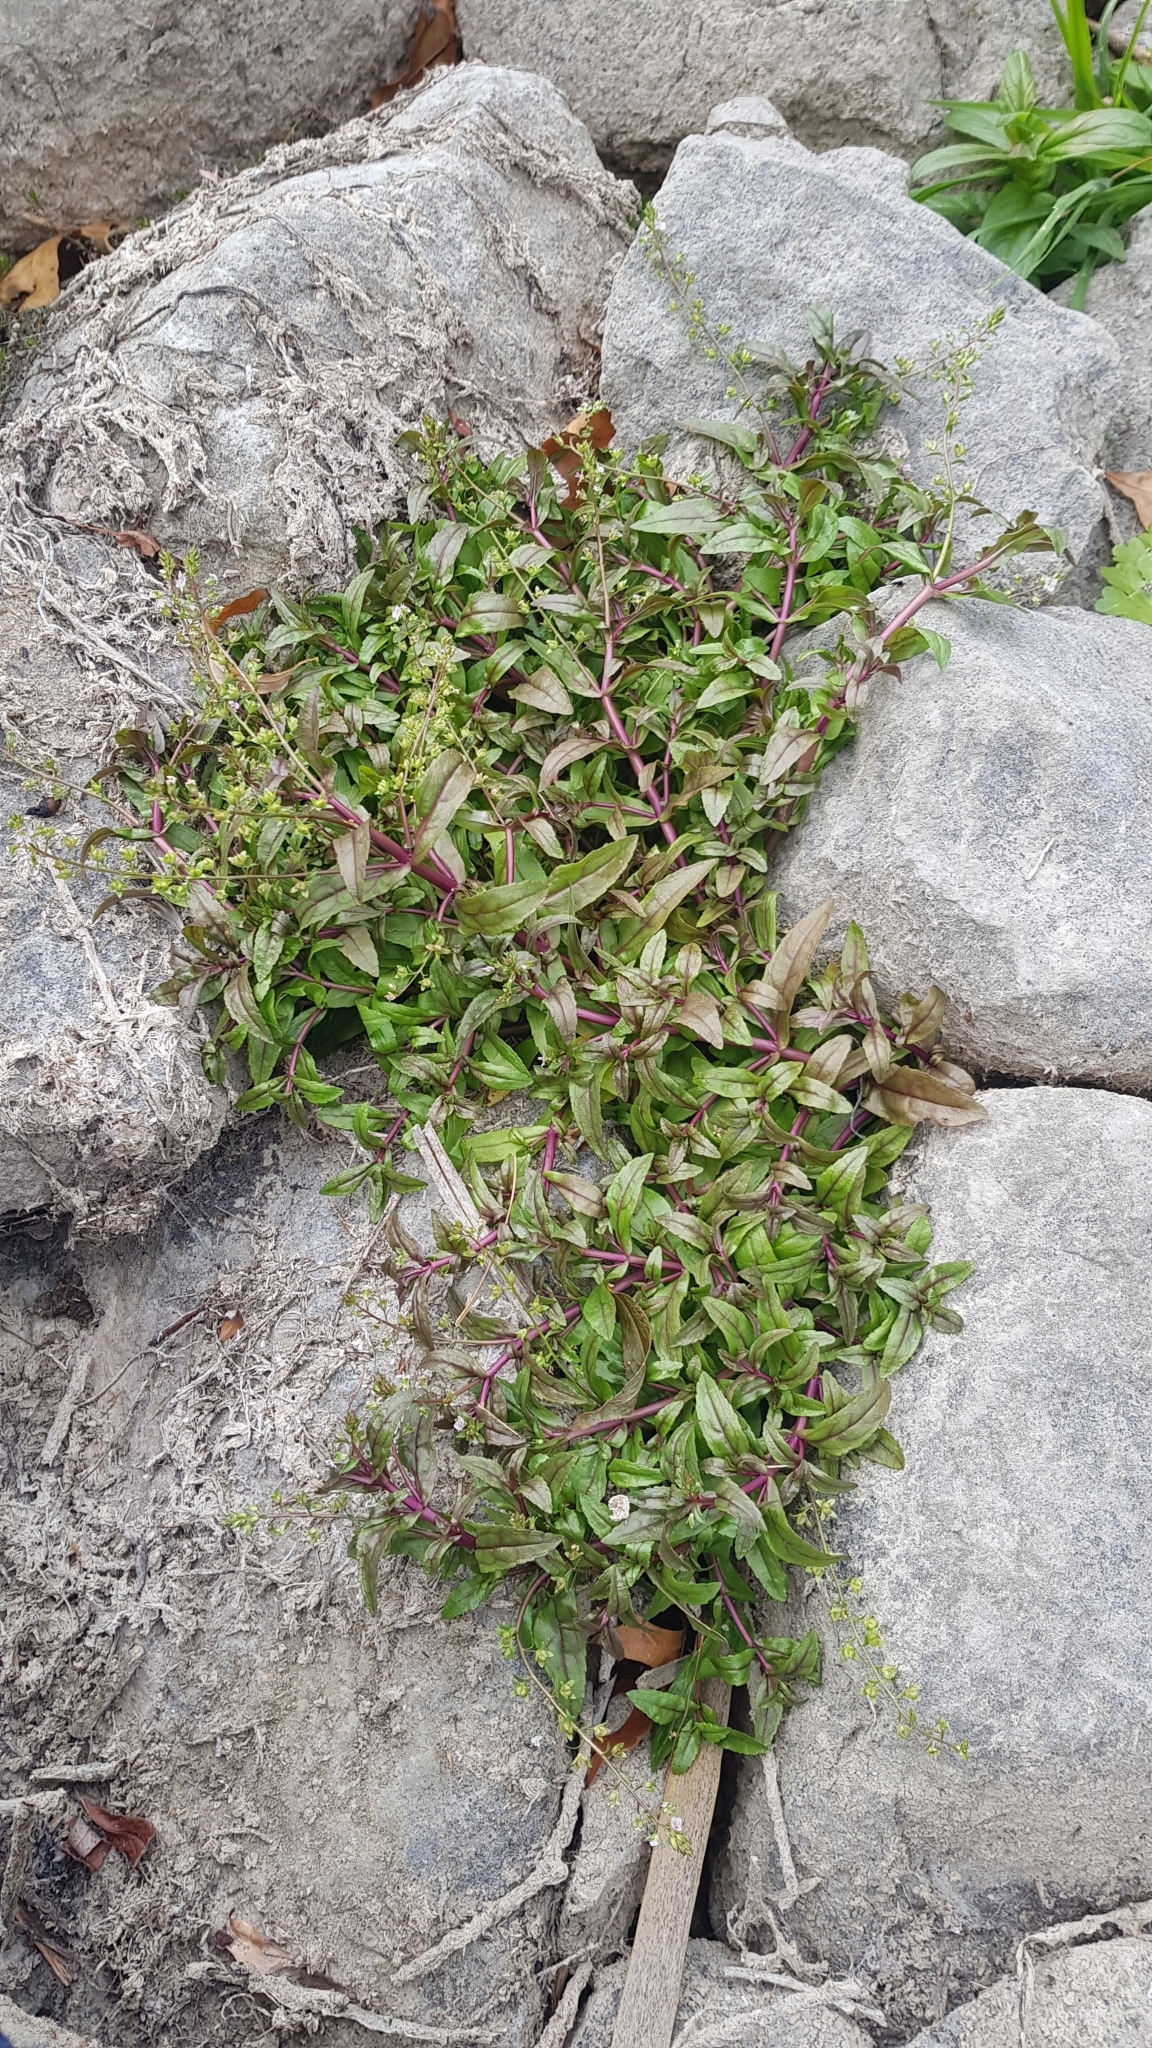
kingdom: Plantae
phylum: Tracheophyta
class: Magnoliopsida
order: Lamiales
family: Plantaginaceae
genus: Veronica
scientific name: Veronica catenata
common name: Pink water-speedwell
